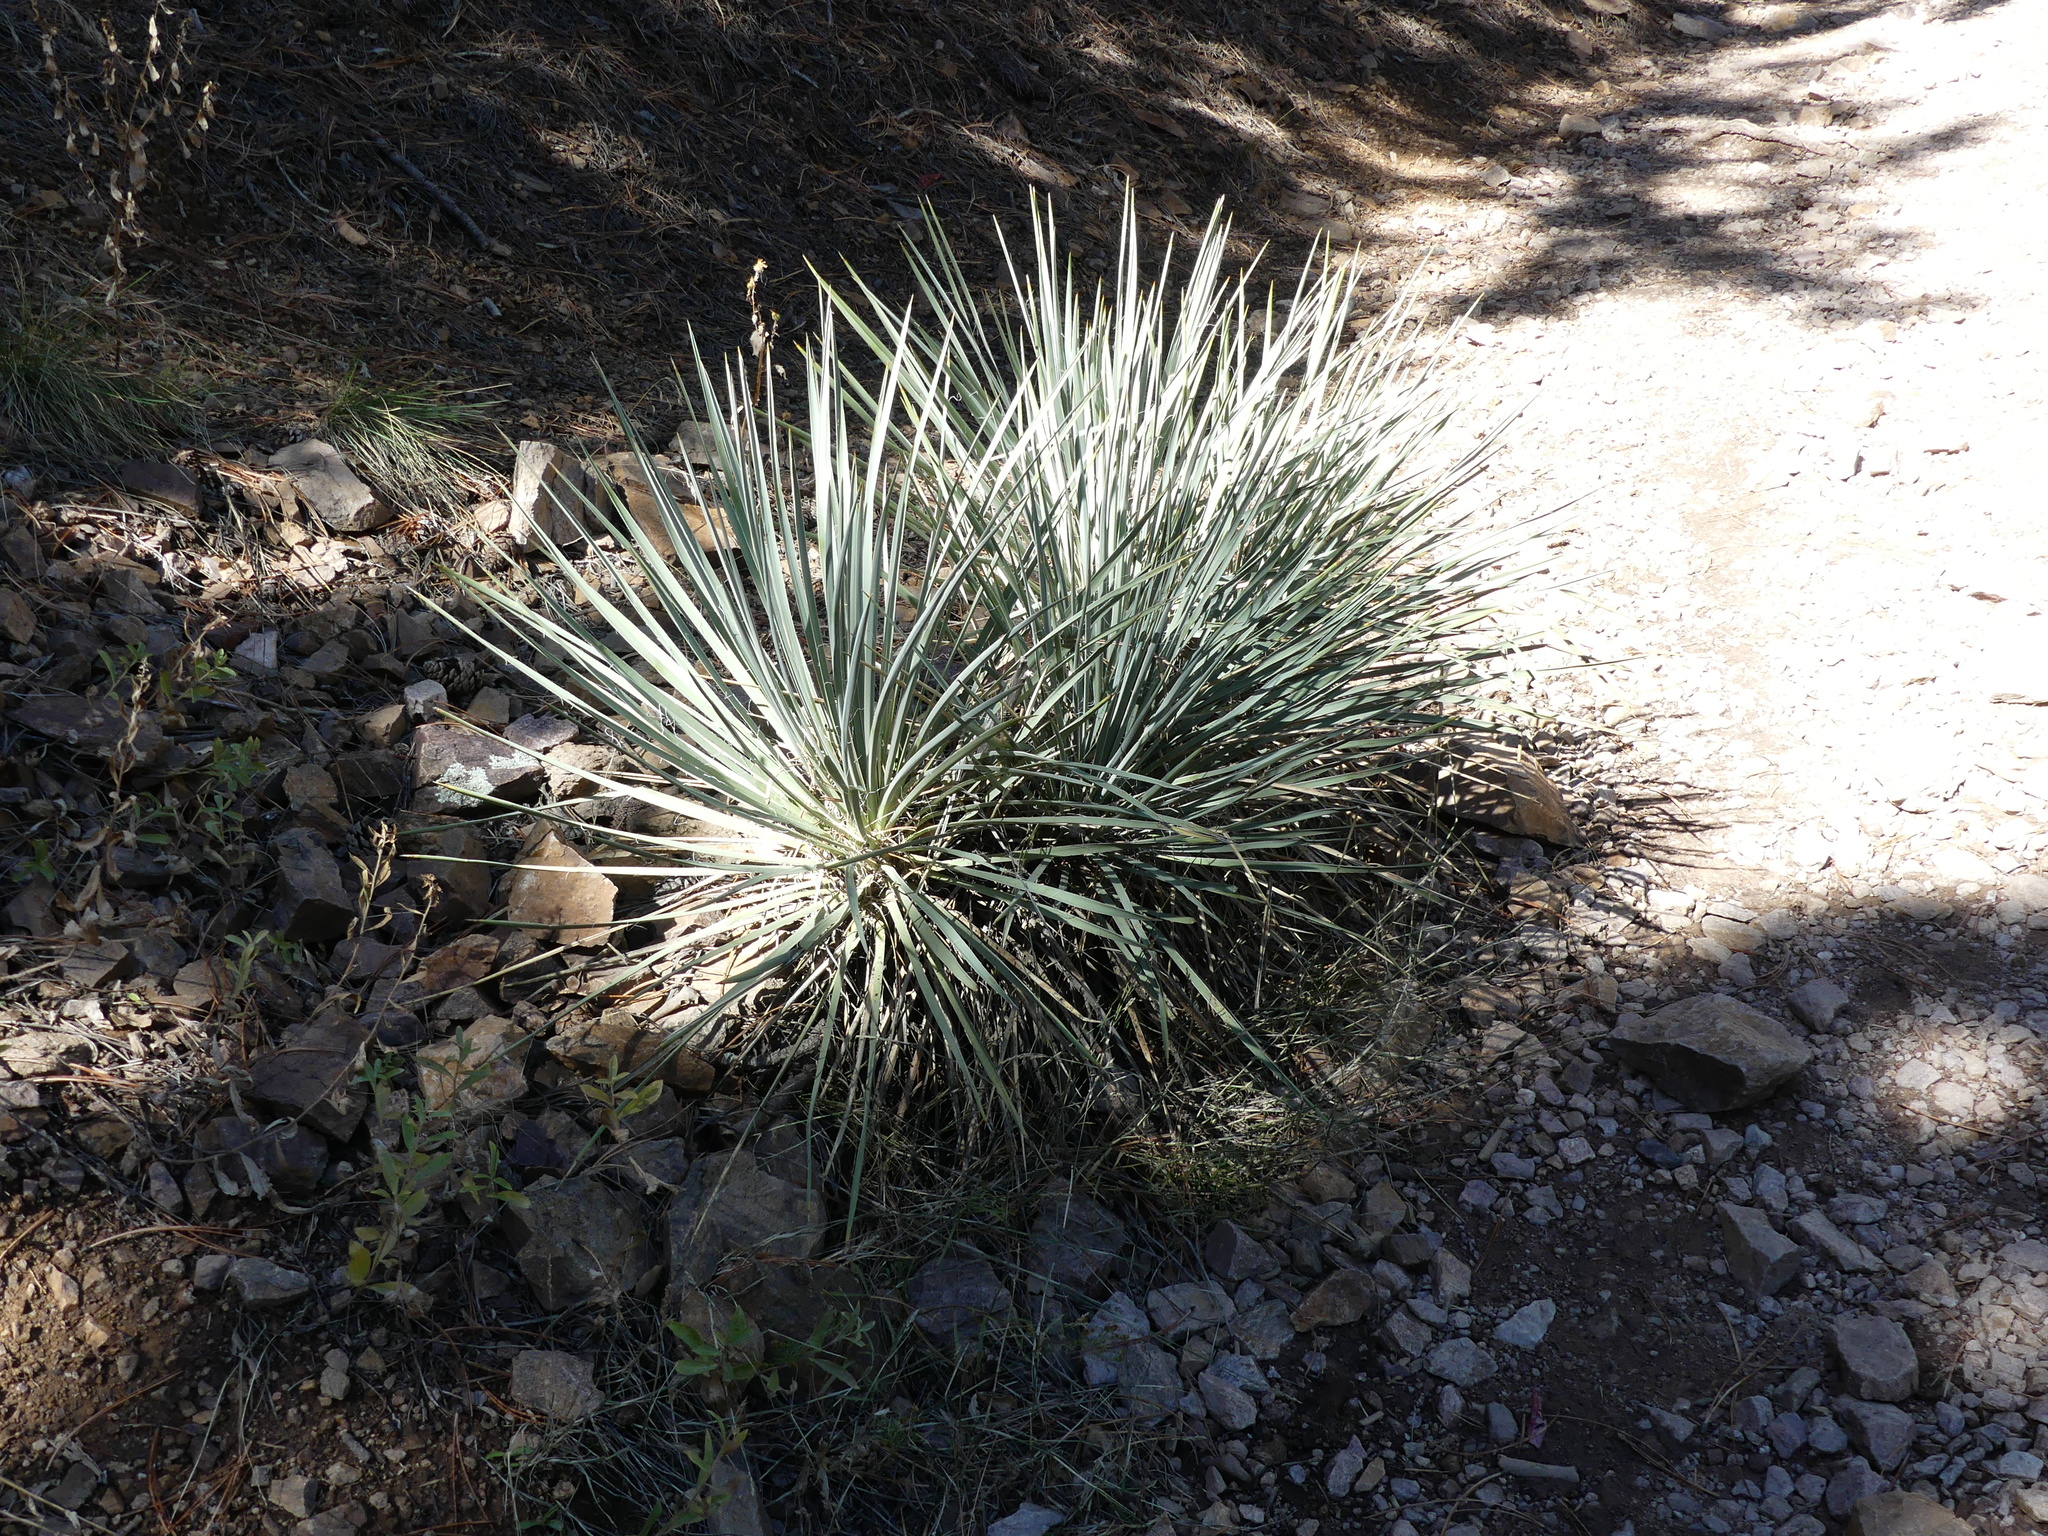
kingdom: Plantae
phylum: Tracheophyta
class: Liliopsida
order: Asparagales
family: Asparagaceae
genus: Yucca
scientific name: Yucca glauca
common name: Great plains yucca
